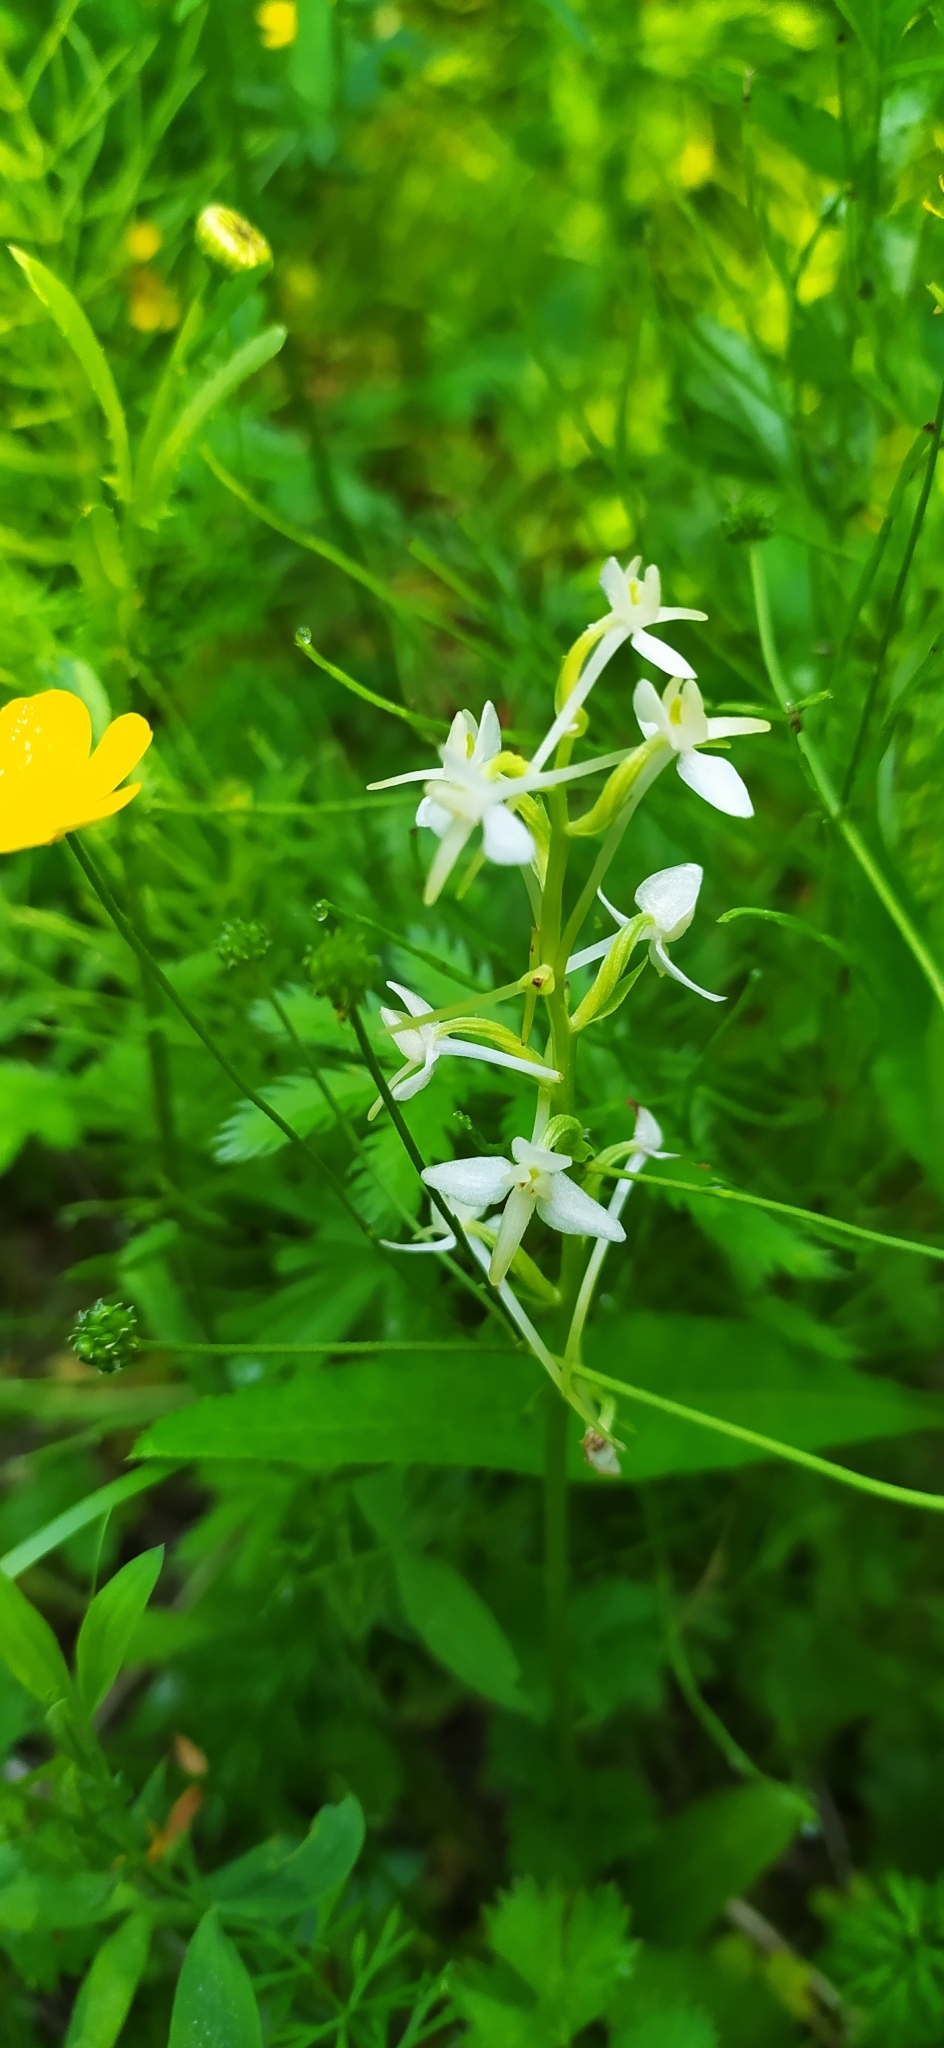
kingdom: Plantae
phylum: Tracheophyta
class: Liliopsida
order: Asparagales
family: Orchidaceae
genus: Platanthera
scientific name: Platanthera bifolia
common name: Lesser butterfly-orchid
